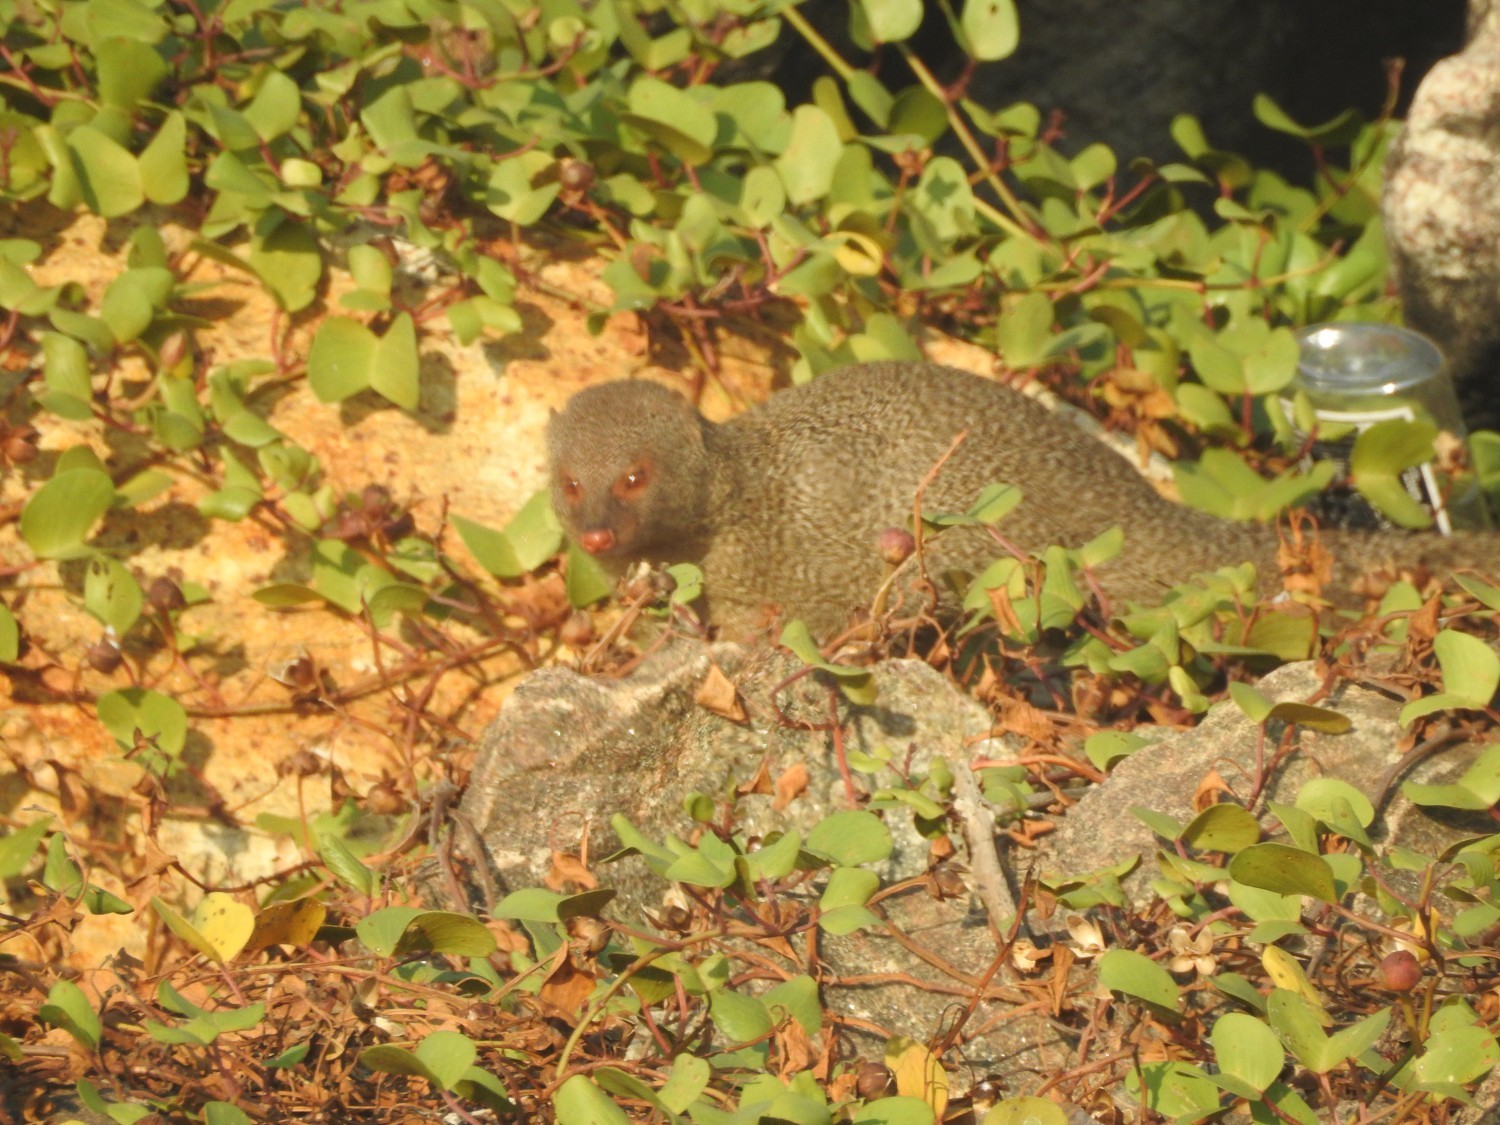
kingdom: Animalia
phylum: Chordata
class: Mammalia
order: Carnivora
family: Herpestidae
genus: Herpestes
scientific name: Herpestes edwardsi
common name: Indian gray mongoose
